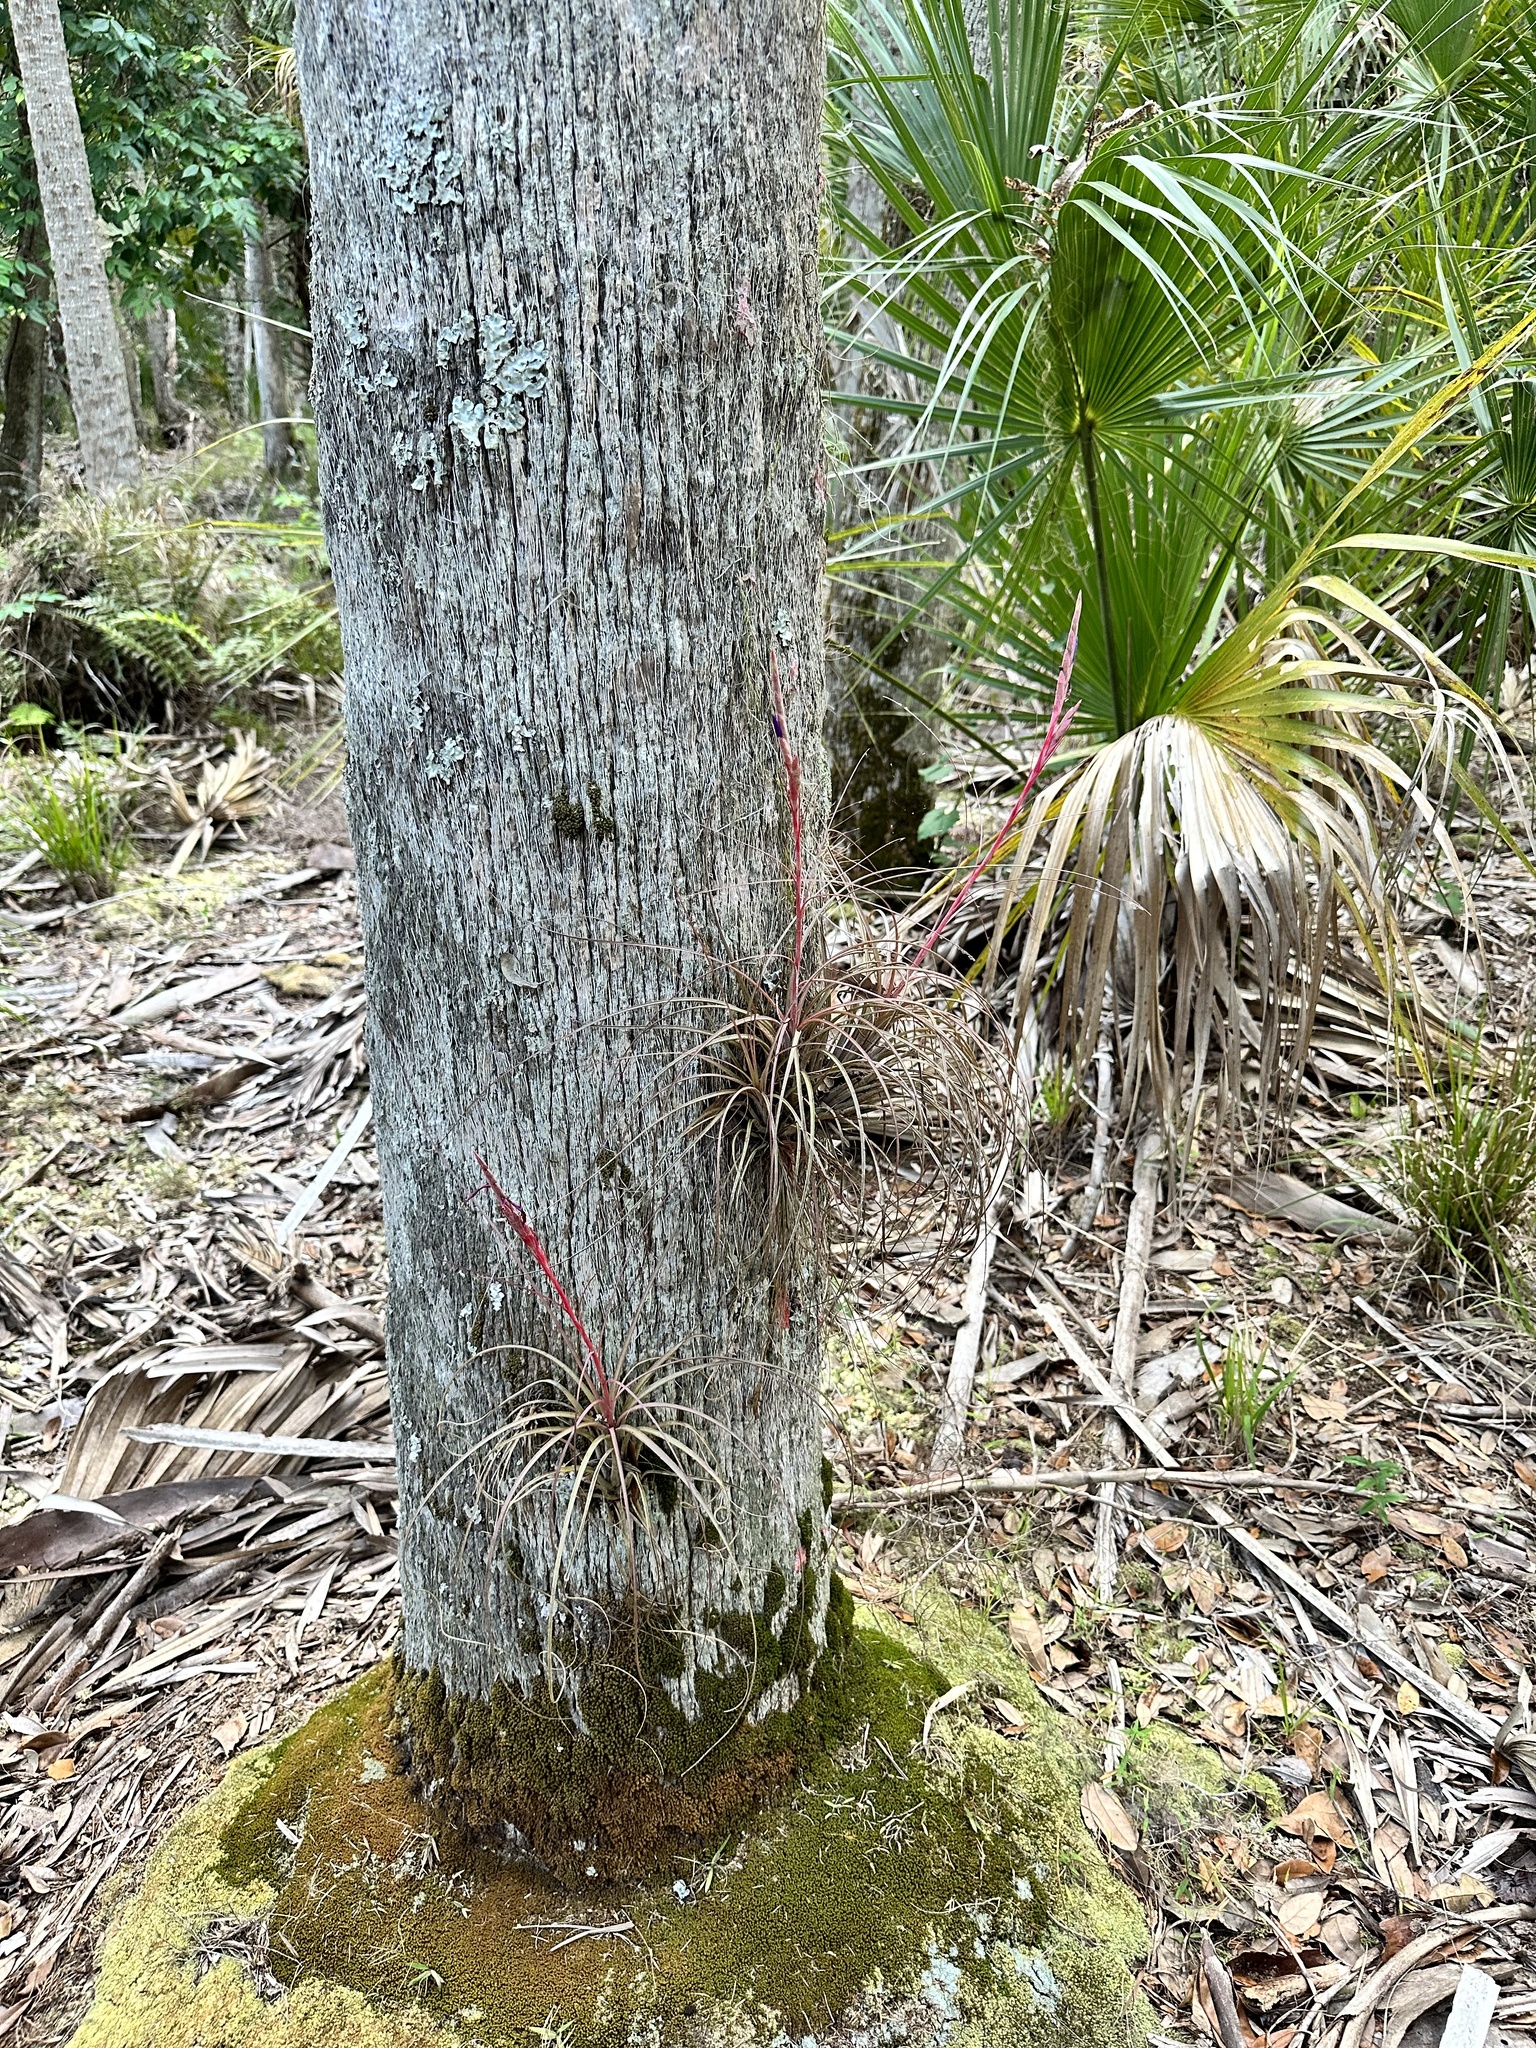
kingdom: Plantae
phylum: Tracheophyta
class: Liliopsida
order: Poales
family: Bromeliaceae
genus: Tillandsia
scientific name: Tillandsia simulata
